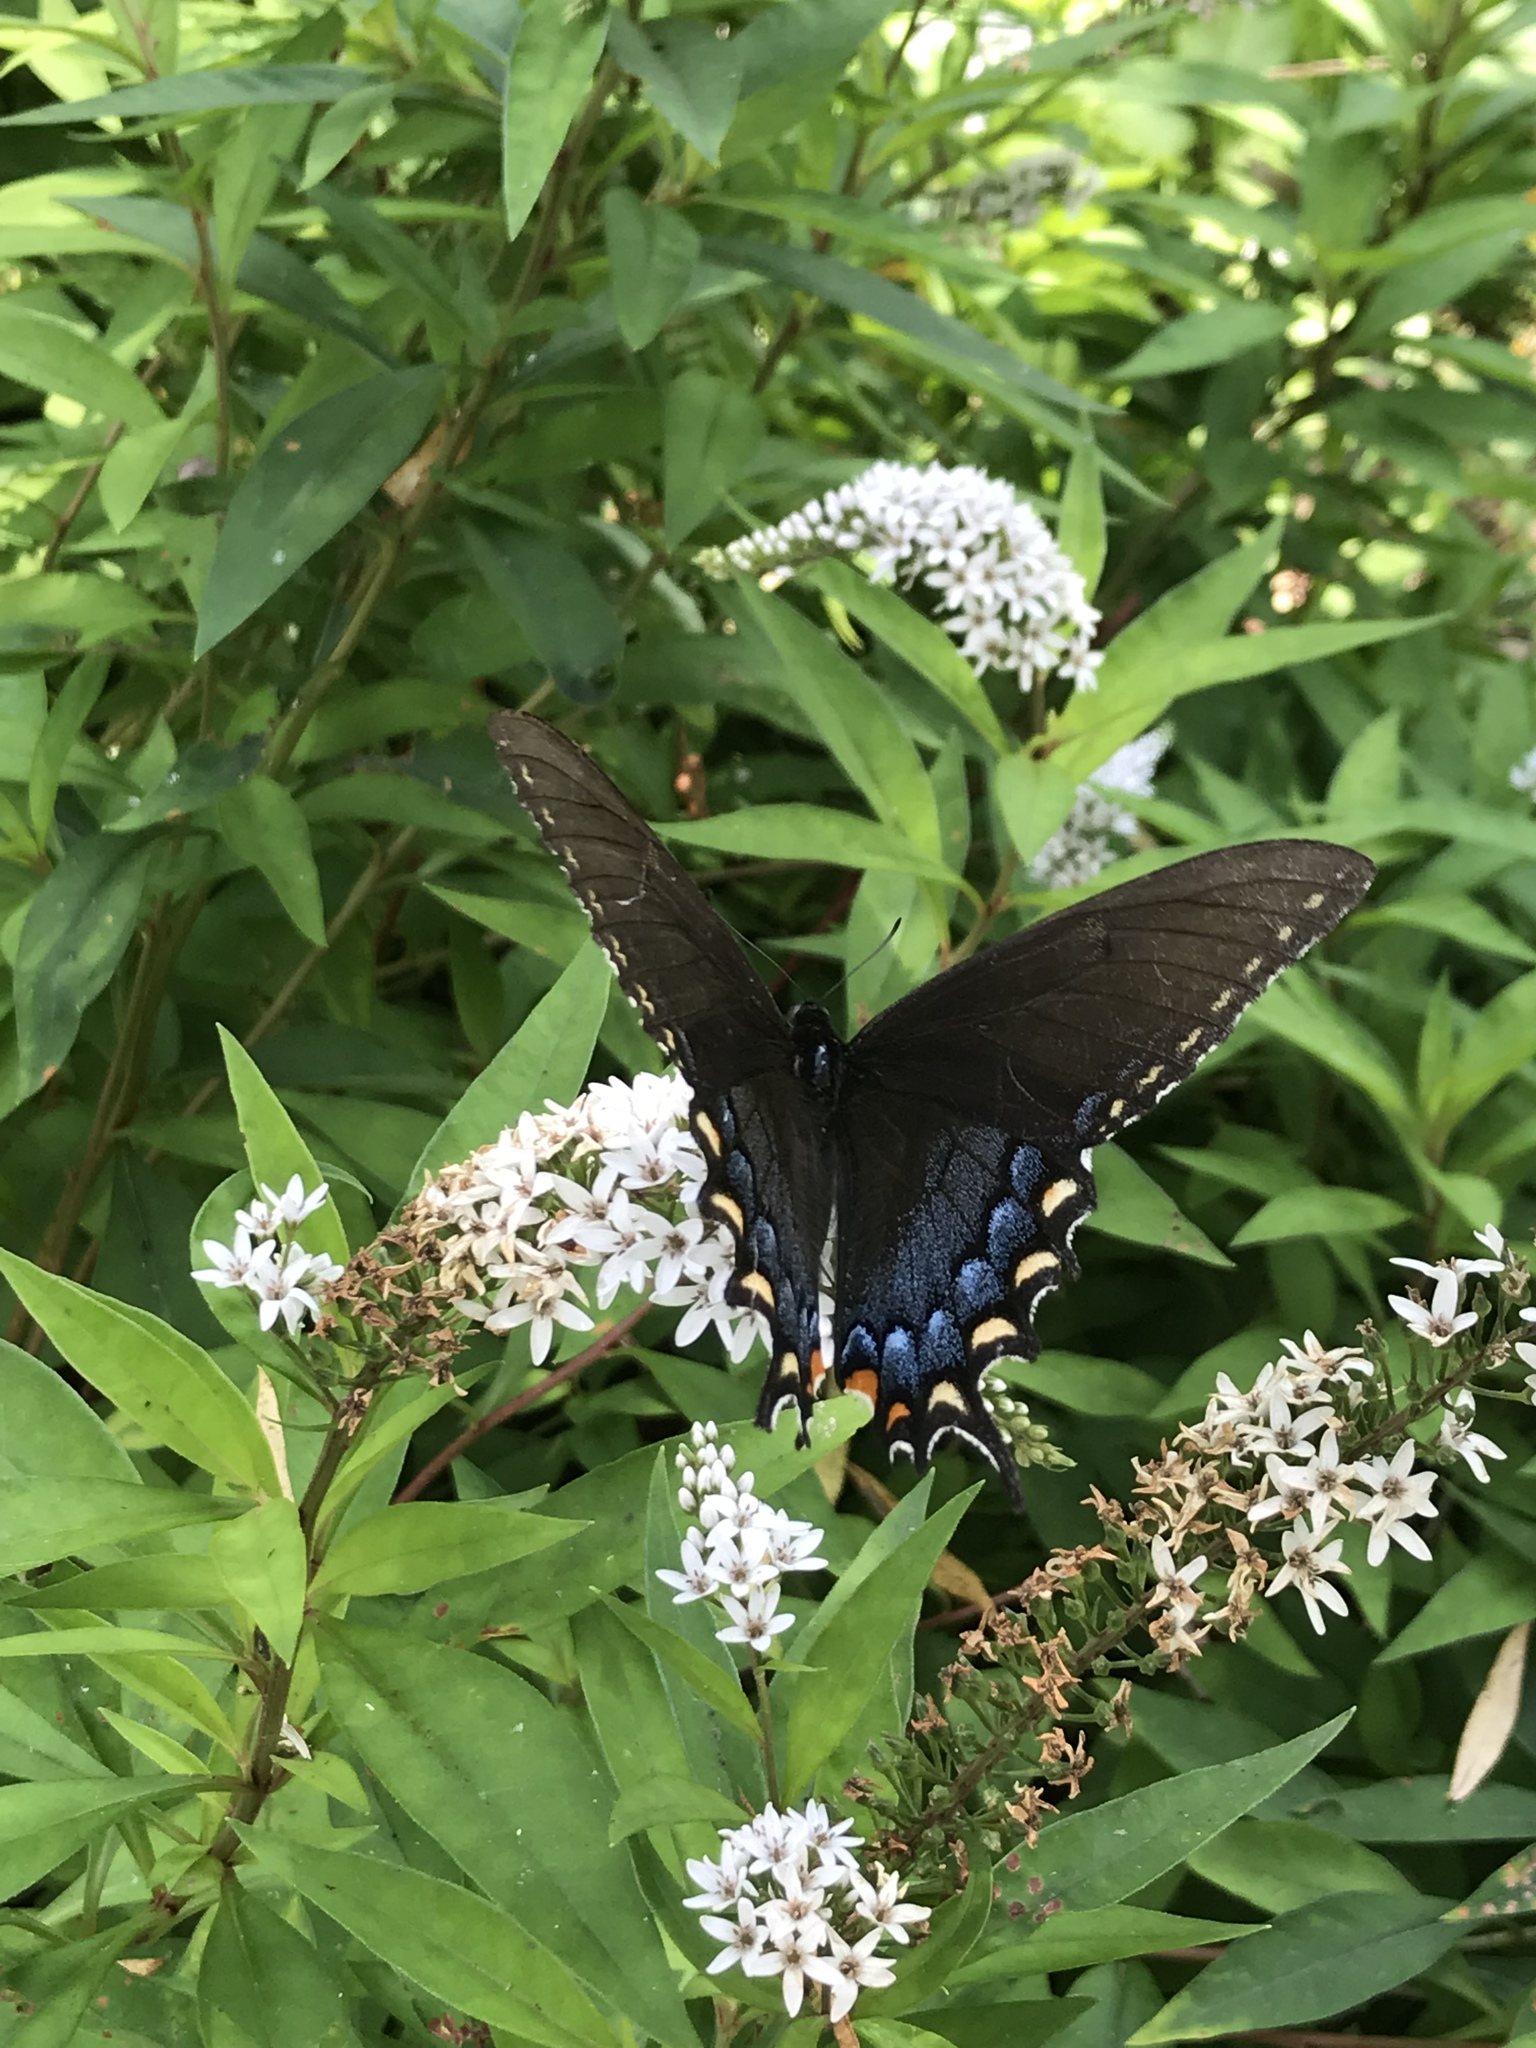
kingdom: Animalia
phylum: Arthropoda
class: Insecta
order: Lepidoptera
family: Papilionidae
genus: Papilio
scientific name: Papilio glaucus
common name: Tiger swallowtail
